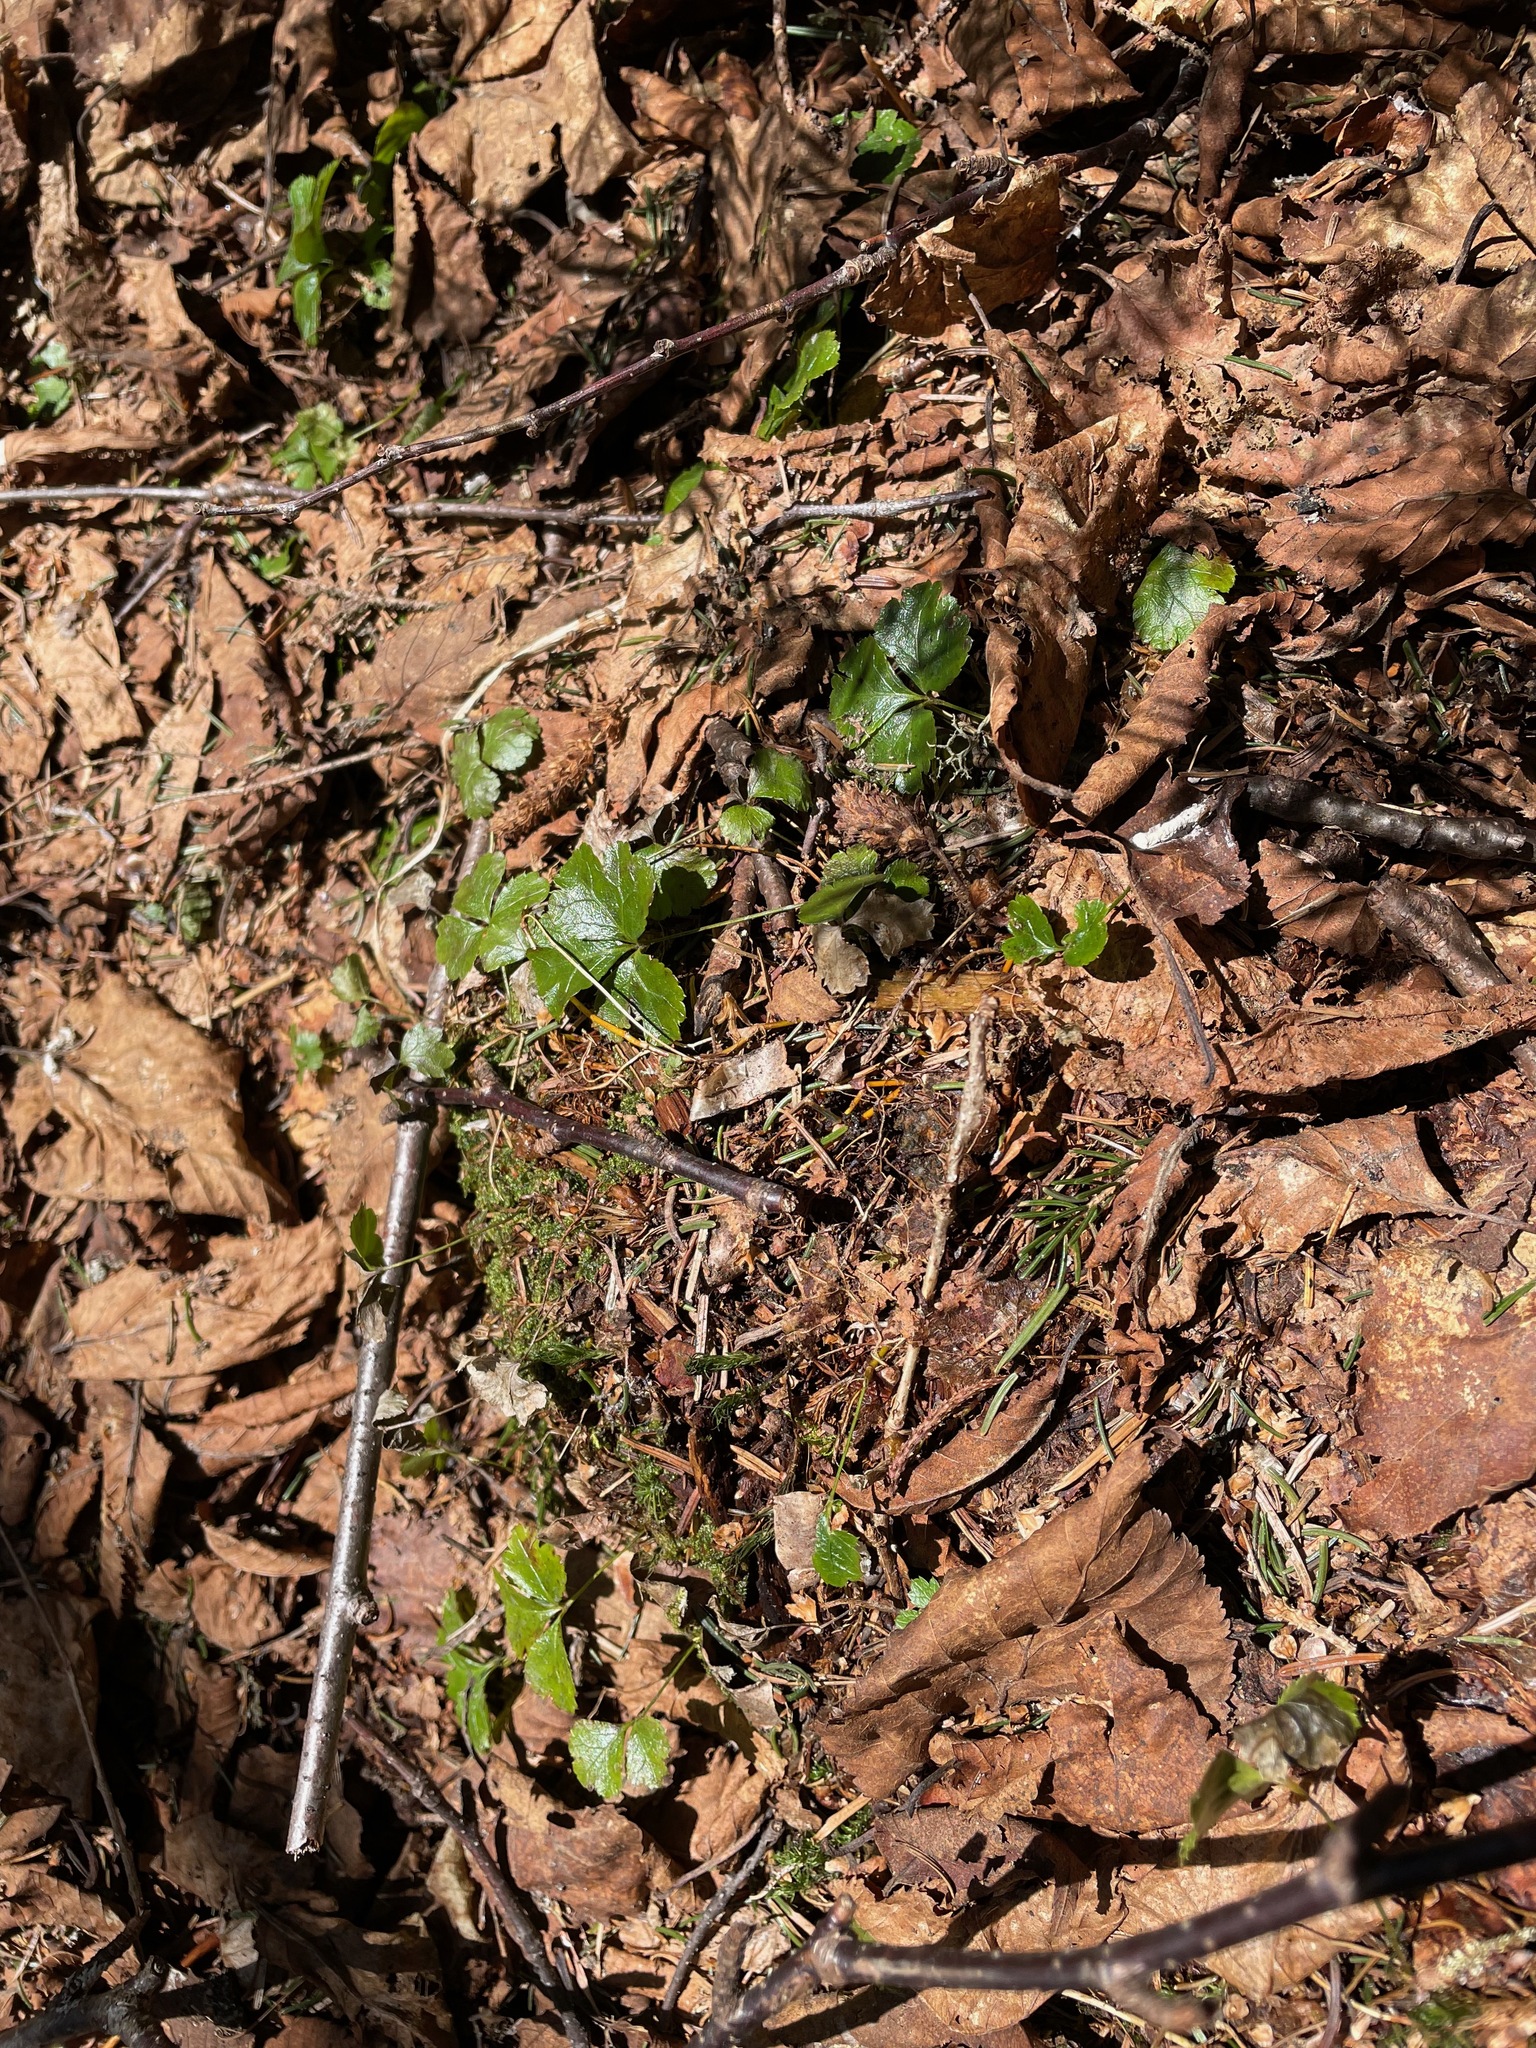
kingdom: Plantae
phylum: Tracheophyta
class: Magnoliopsida
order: Ranunculales
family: Ranunculaceae
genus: Coptis
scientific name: Coptis trifolia
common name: Canker-root
